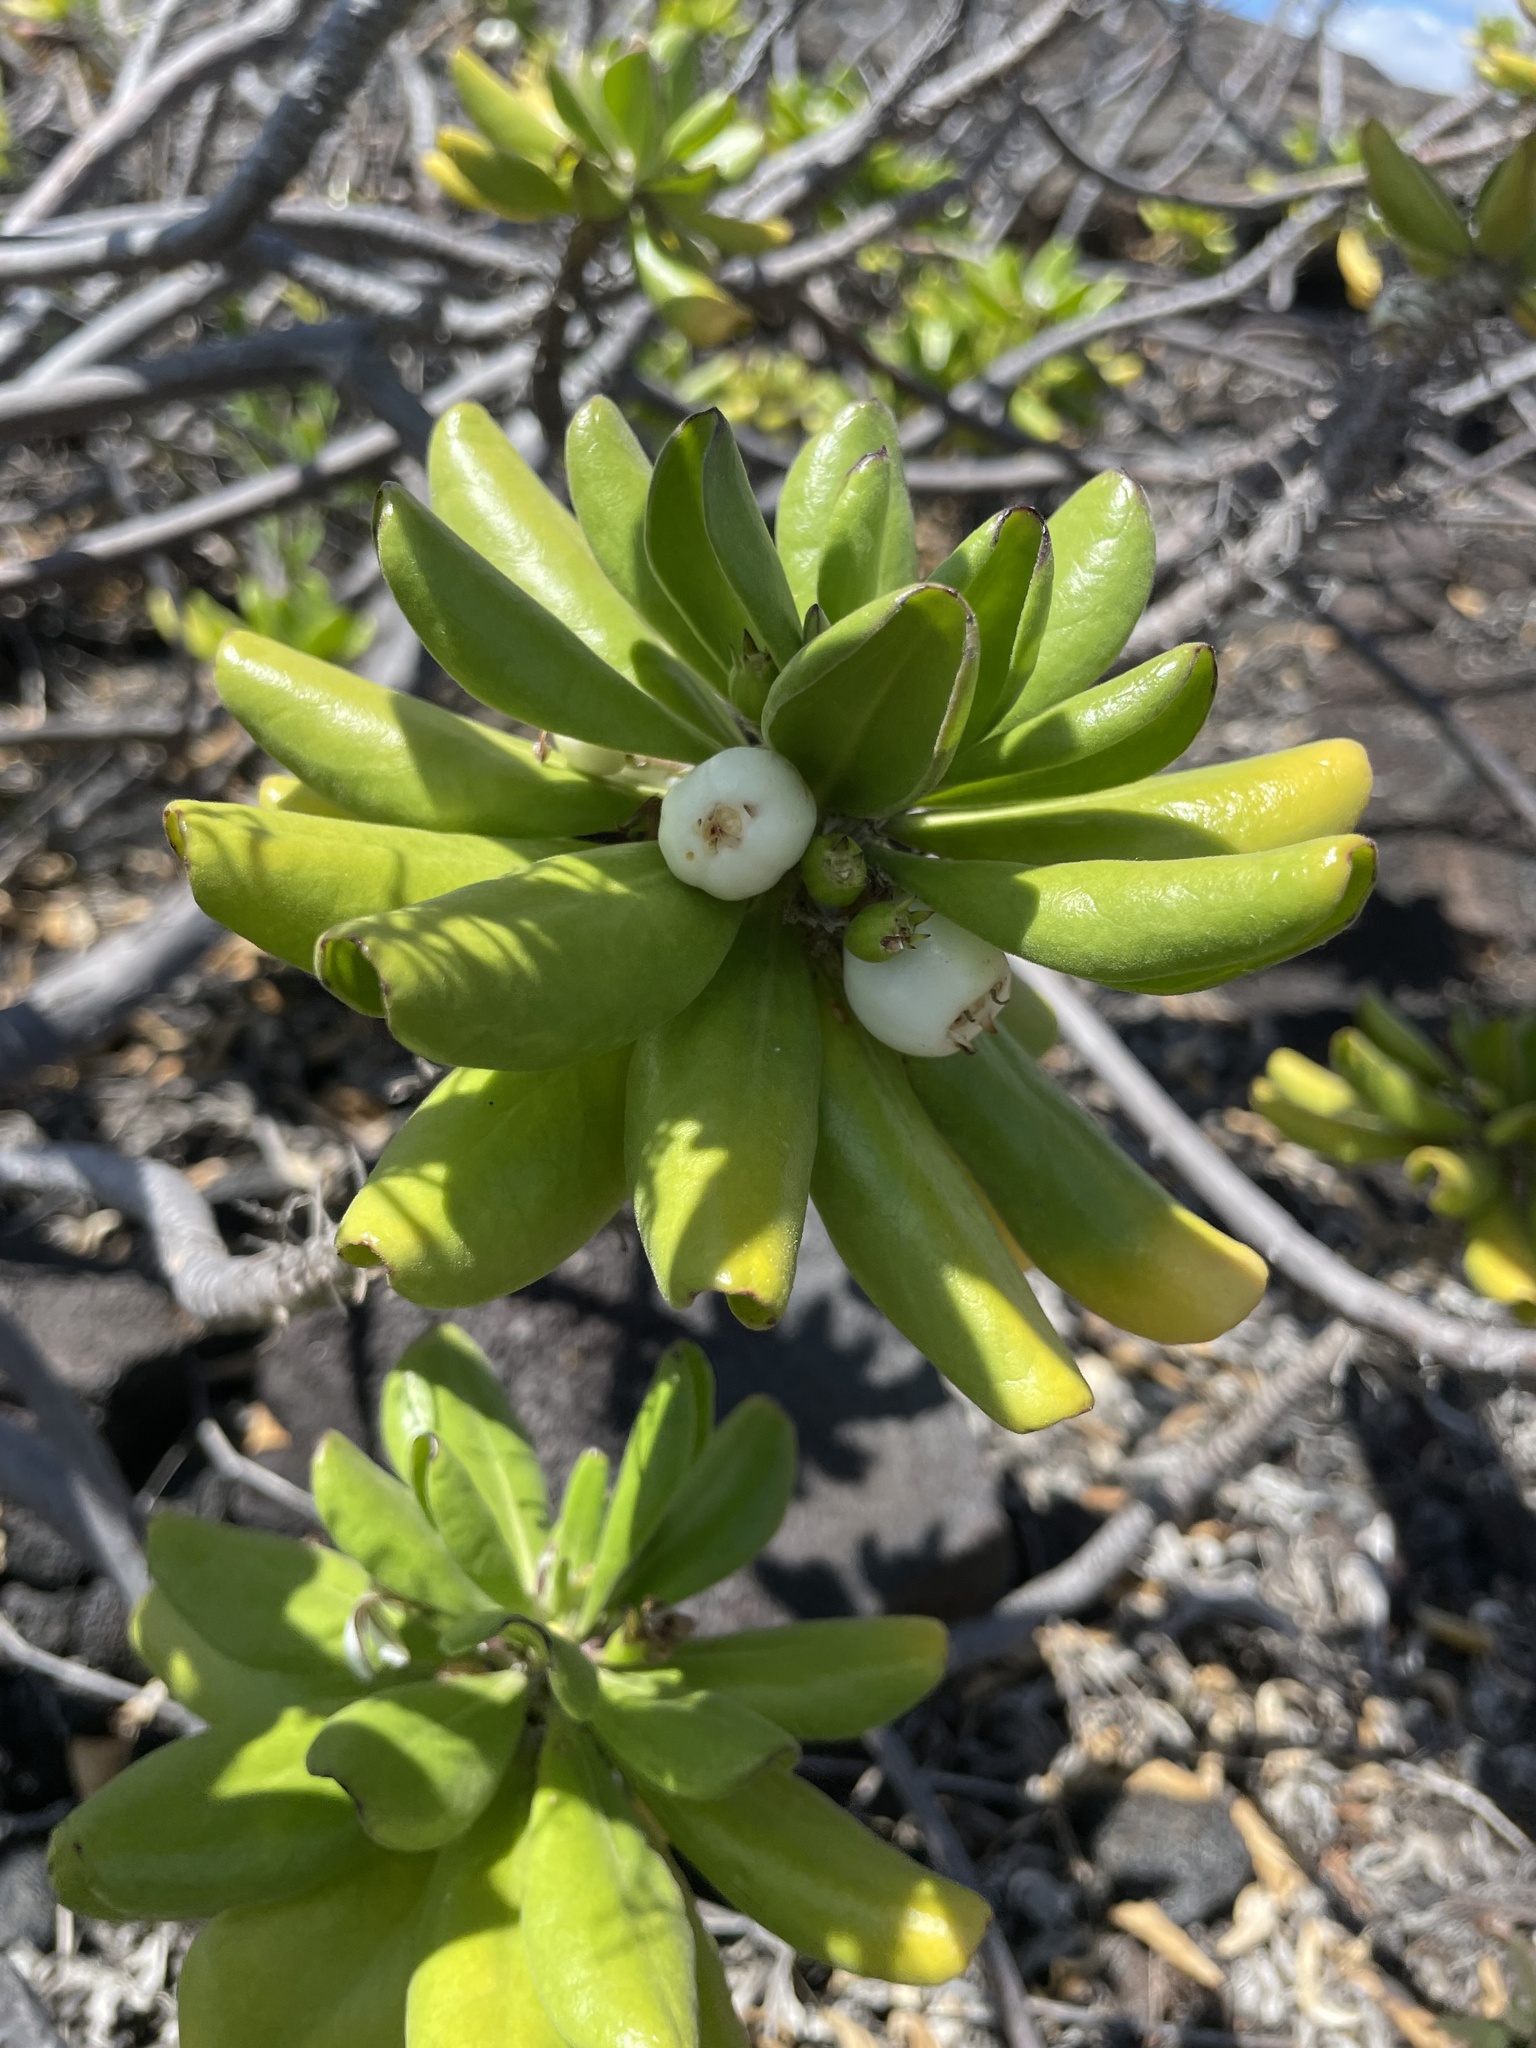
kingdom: Plantae
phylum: Tracheophyta
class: Magnoliopsida
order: Asterales
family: Goodeniaceae
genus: Scaevola
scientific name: Scaevola taccada
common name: Sea lettucetree
